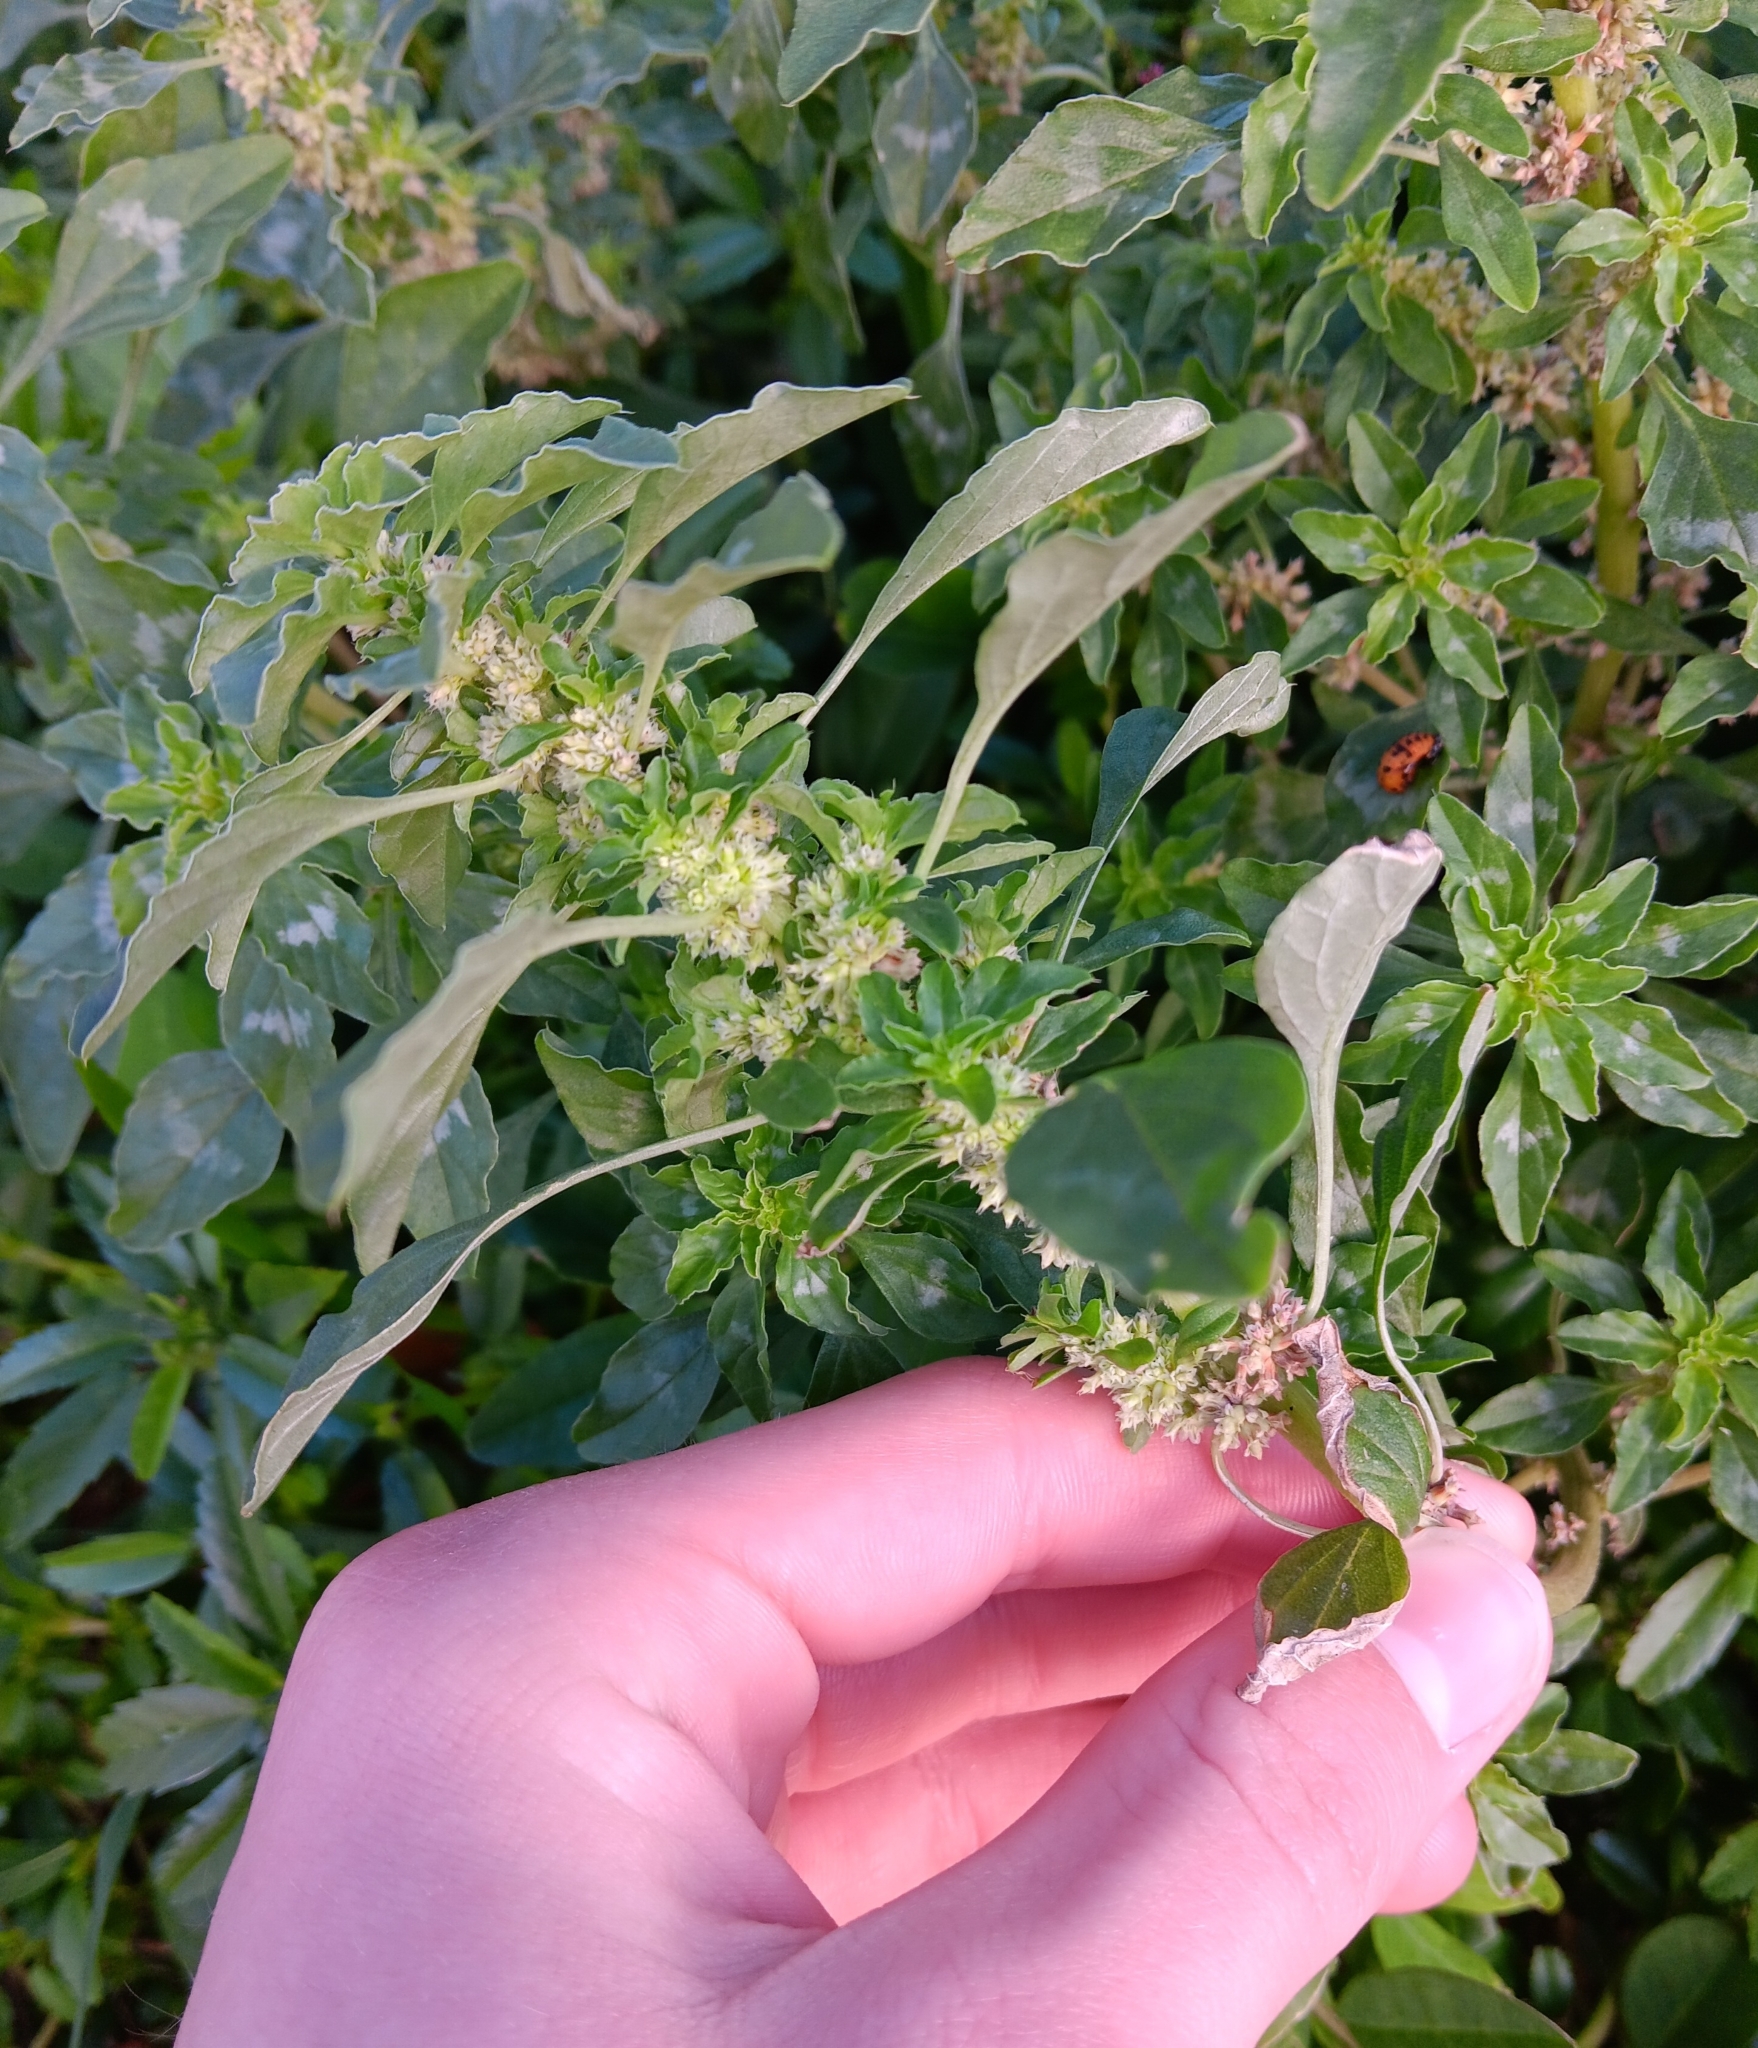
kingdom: Plantae
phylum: Tracheophyta
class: Magnoliopsida
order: Caryophyllales
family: Amaranthaceae
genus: Amaranthus
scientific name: Amaranthus polygonoides
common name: Tropical amaranth
